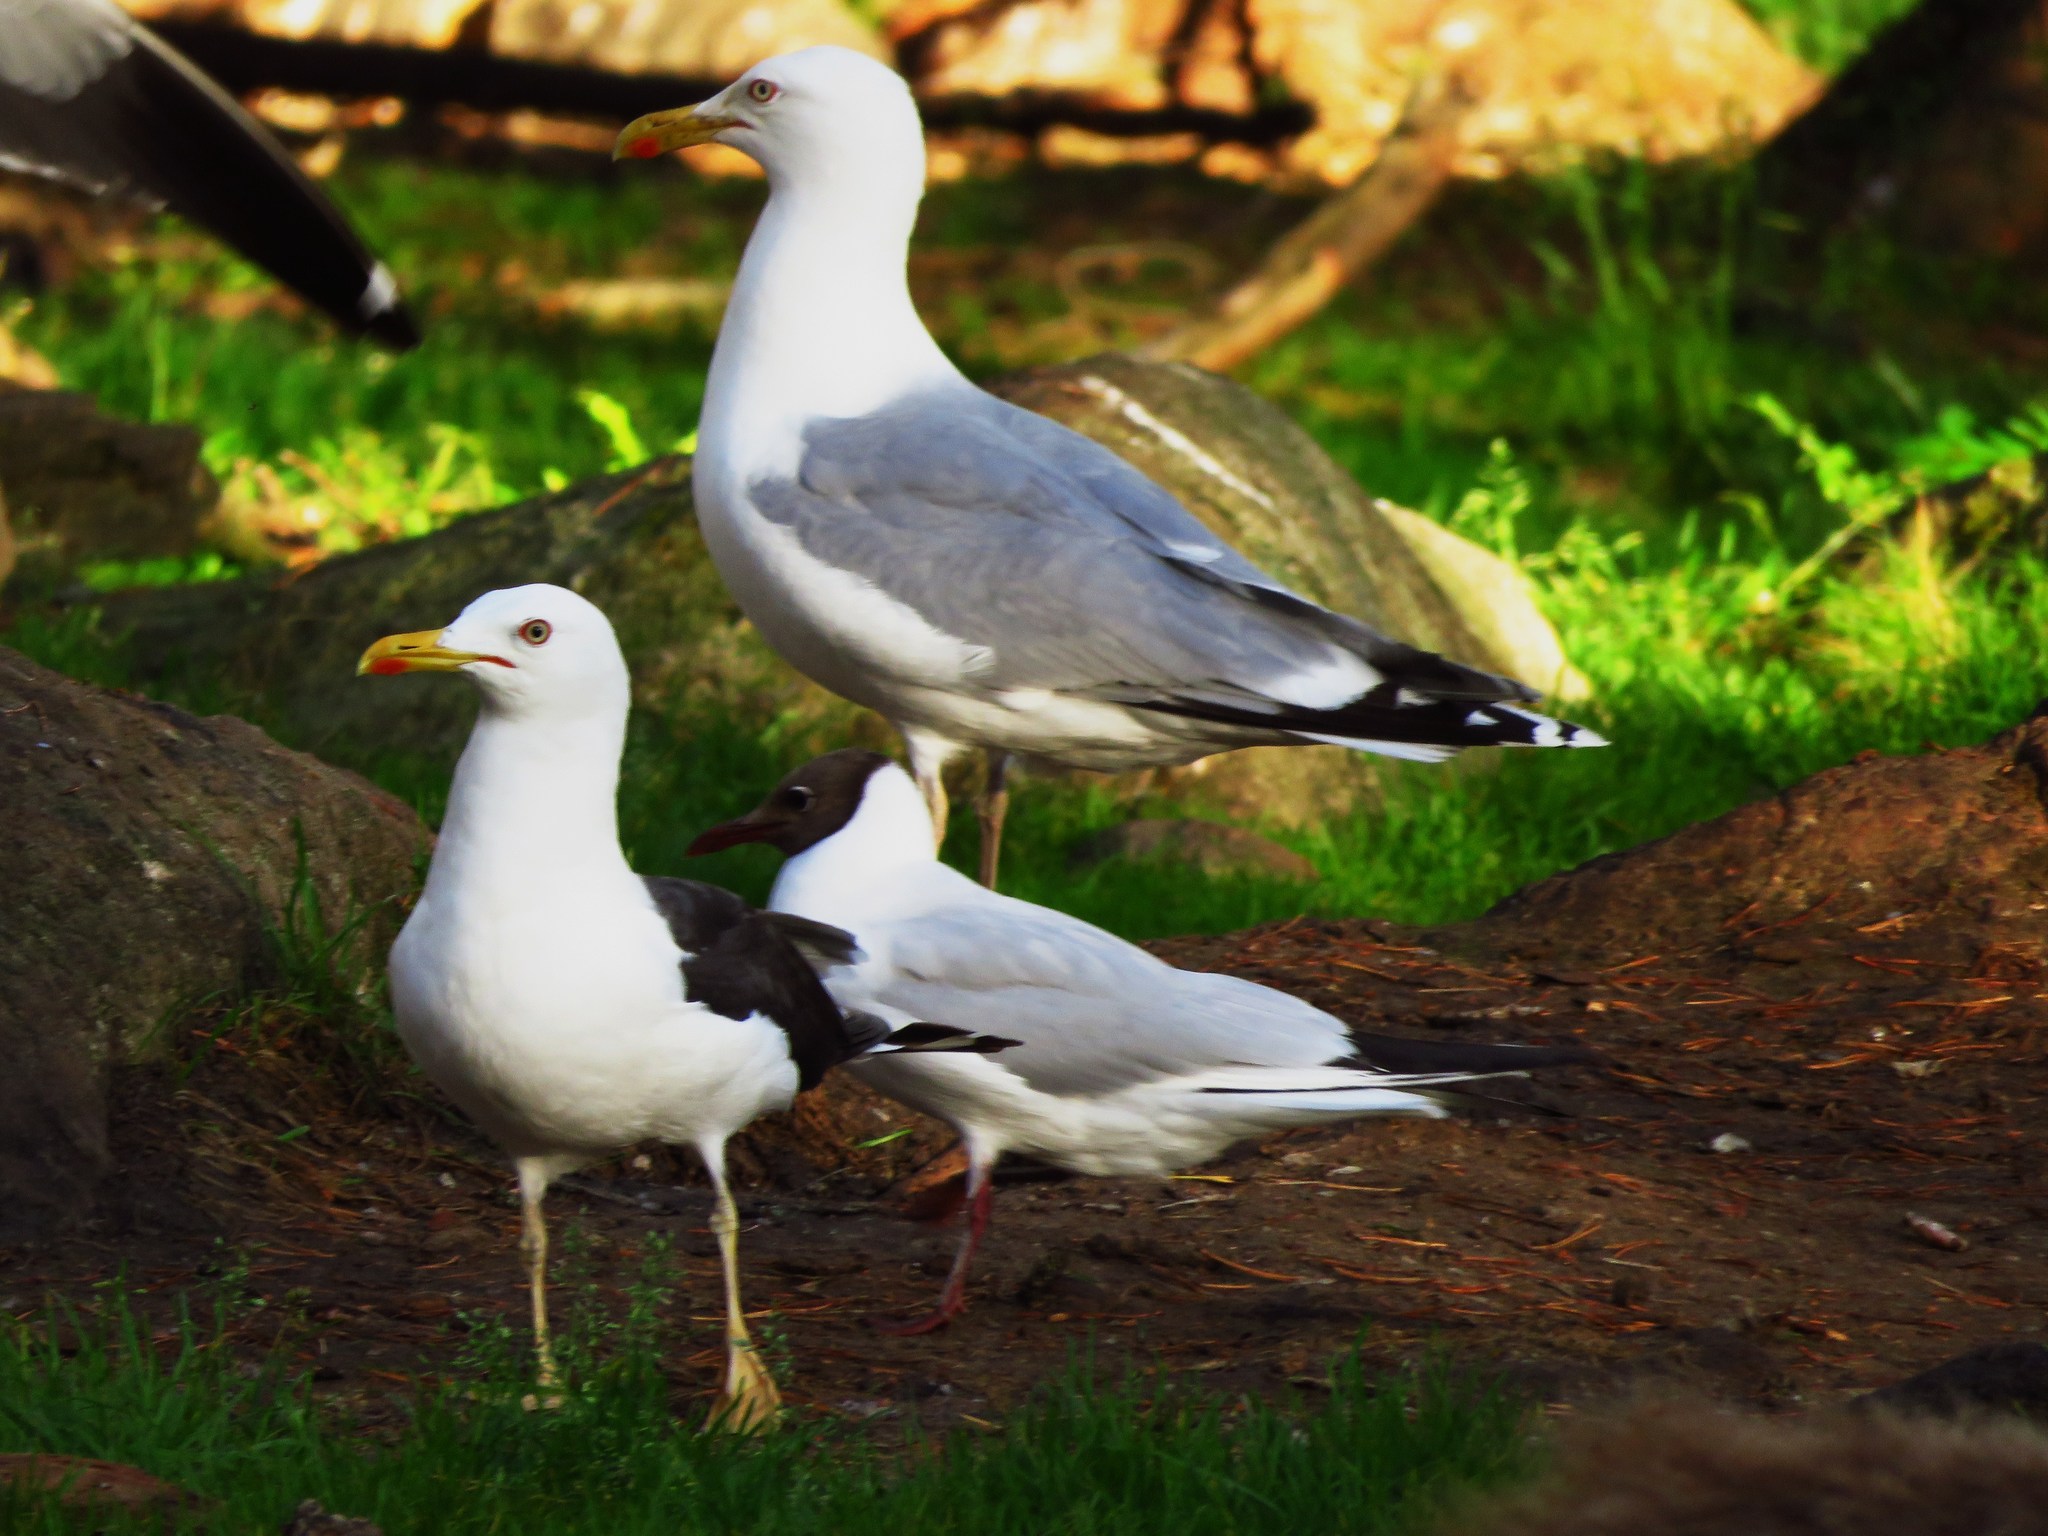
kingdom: Animalia
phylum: Chordata
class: Aves
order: Charadriiformes
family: Laridae
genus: Larus
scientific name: Larus argentatus
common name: Herring gull
